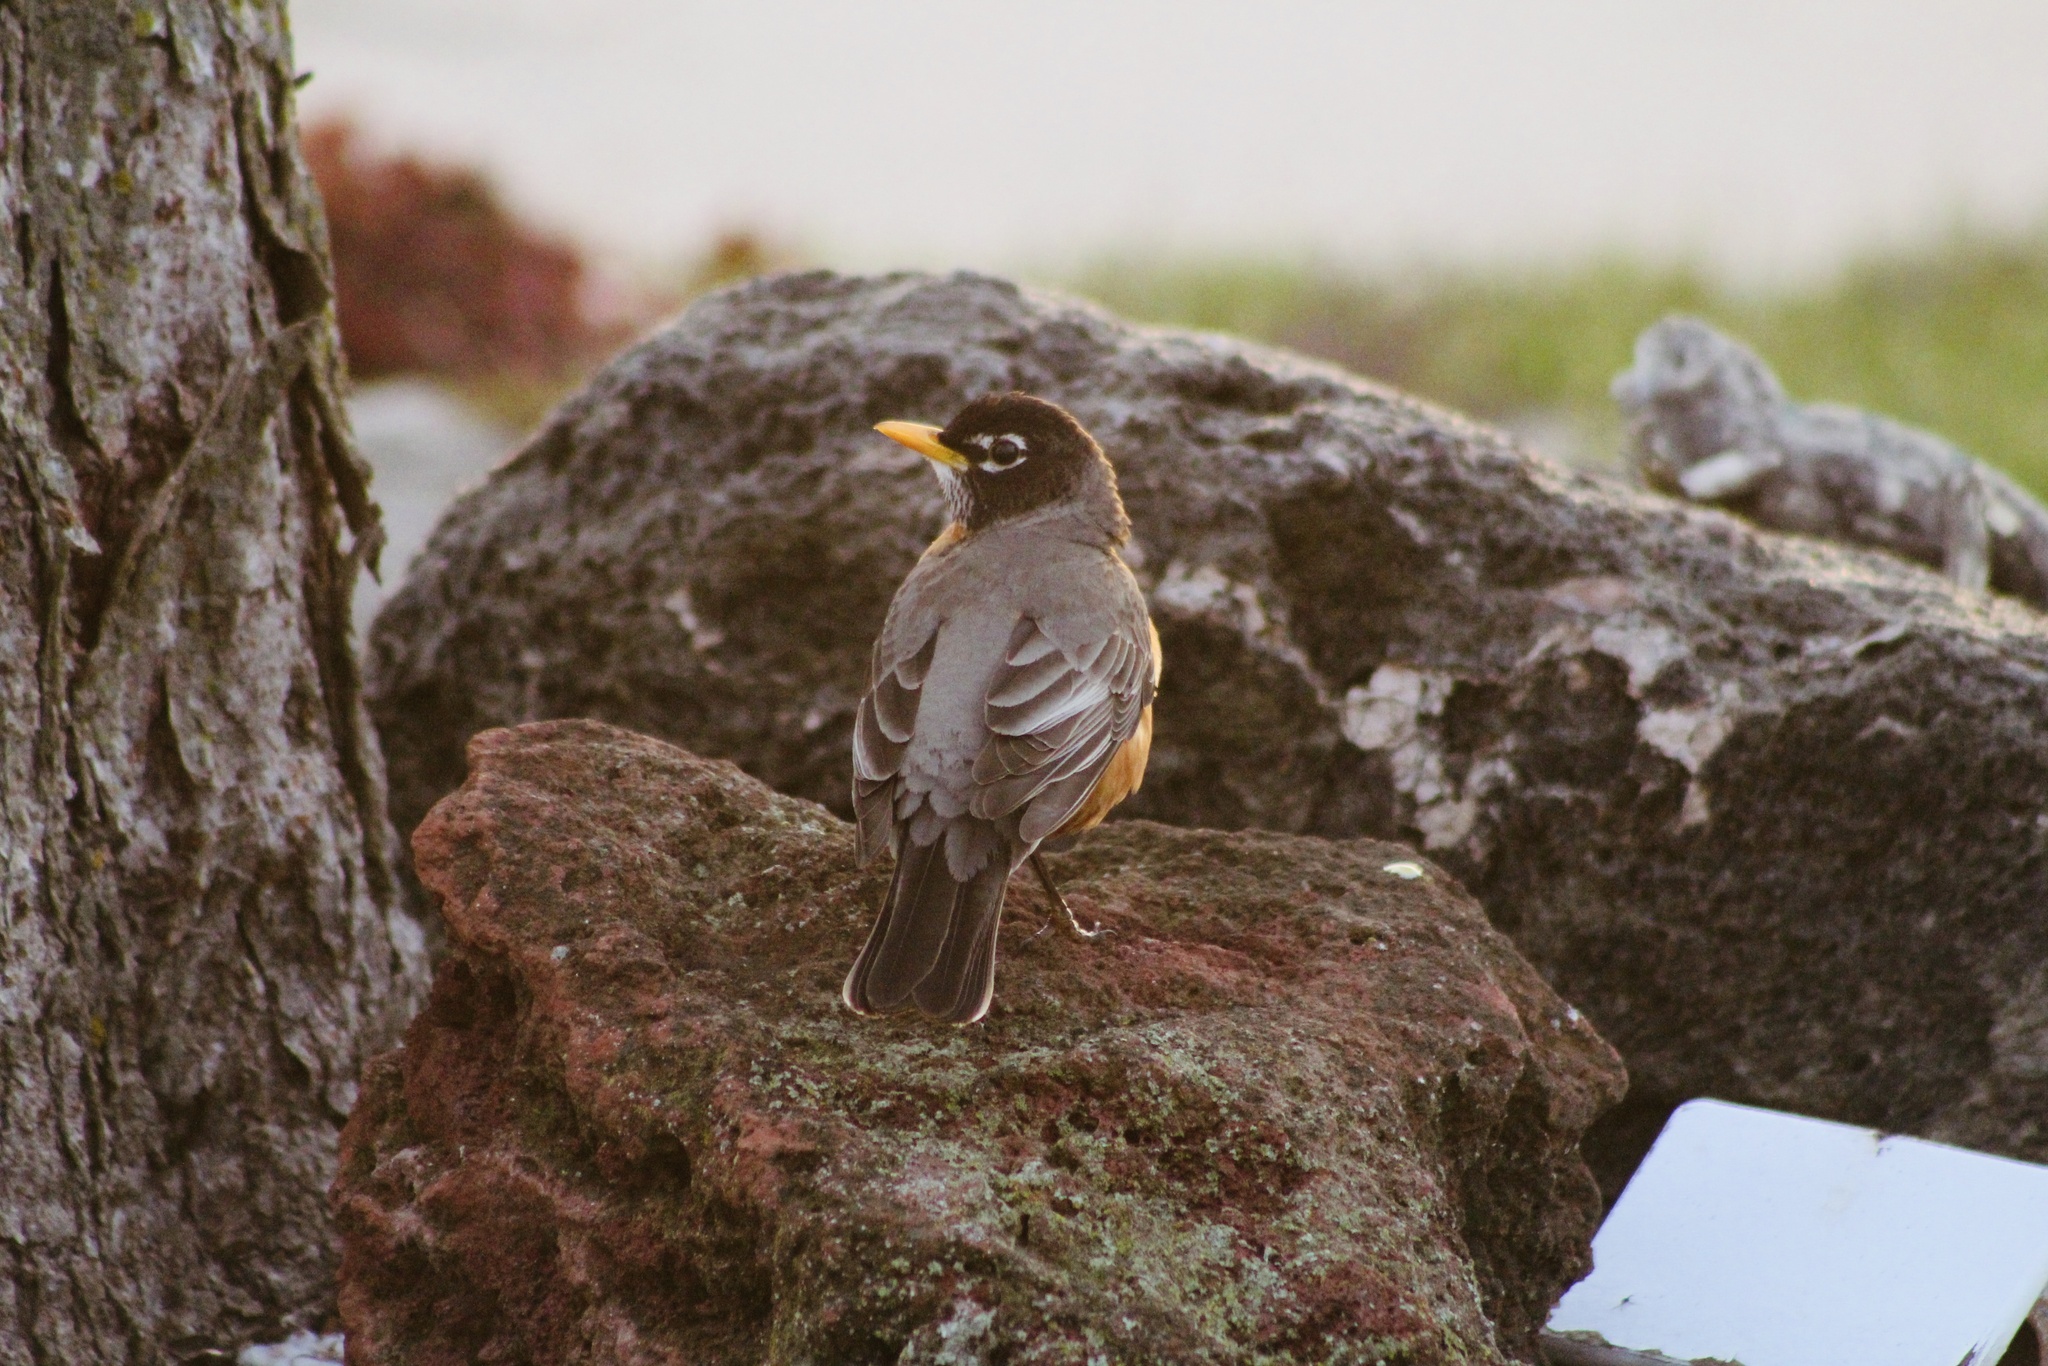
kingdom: Animalia
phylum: Chordata
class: Aves
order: Passeriformes
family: Turdidae
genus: Turdus
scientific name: Turdus migratorius
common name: American robin
